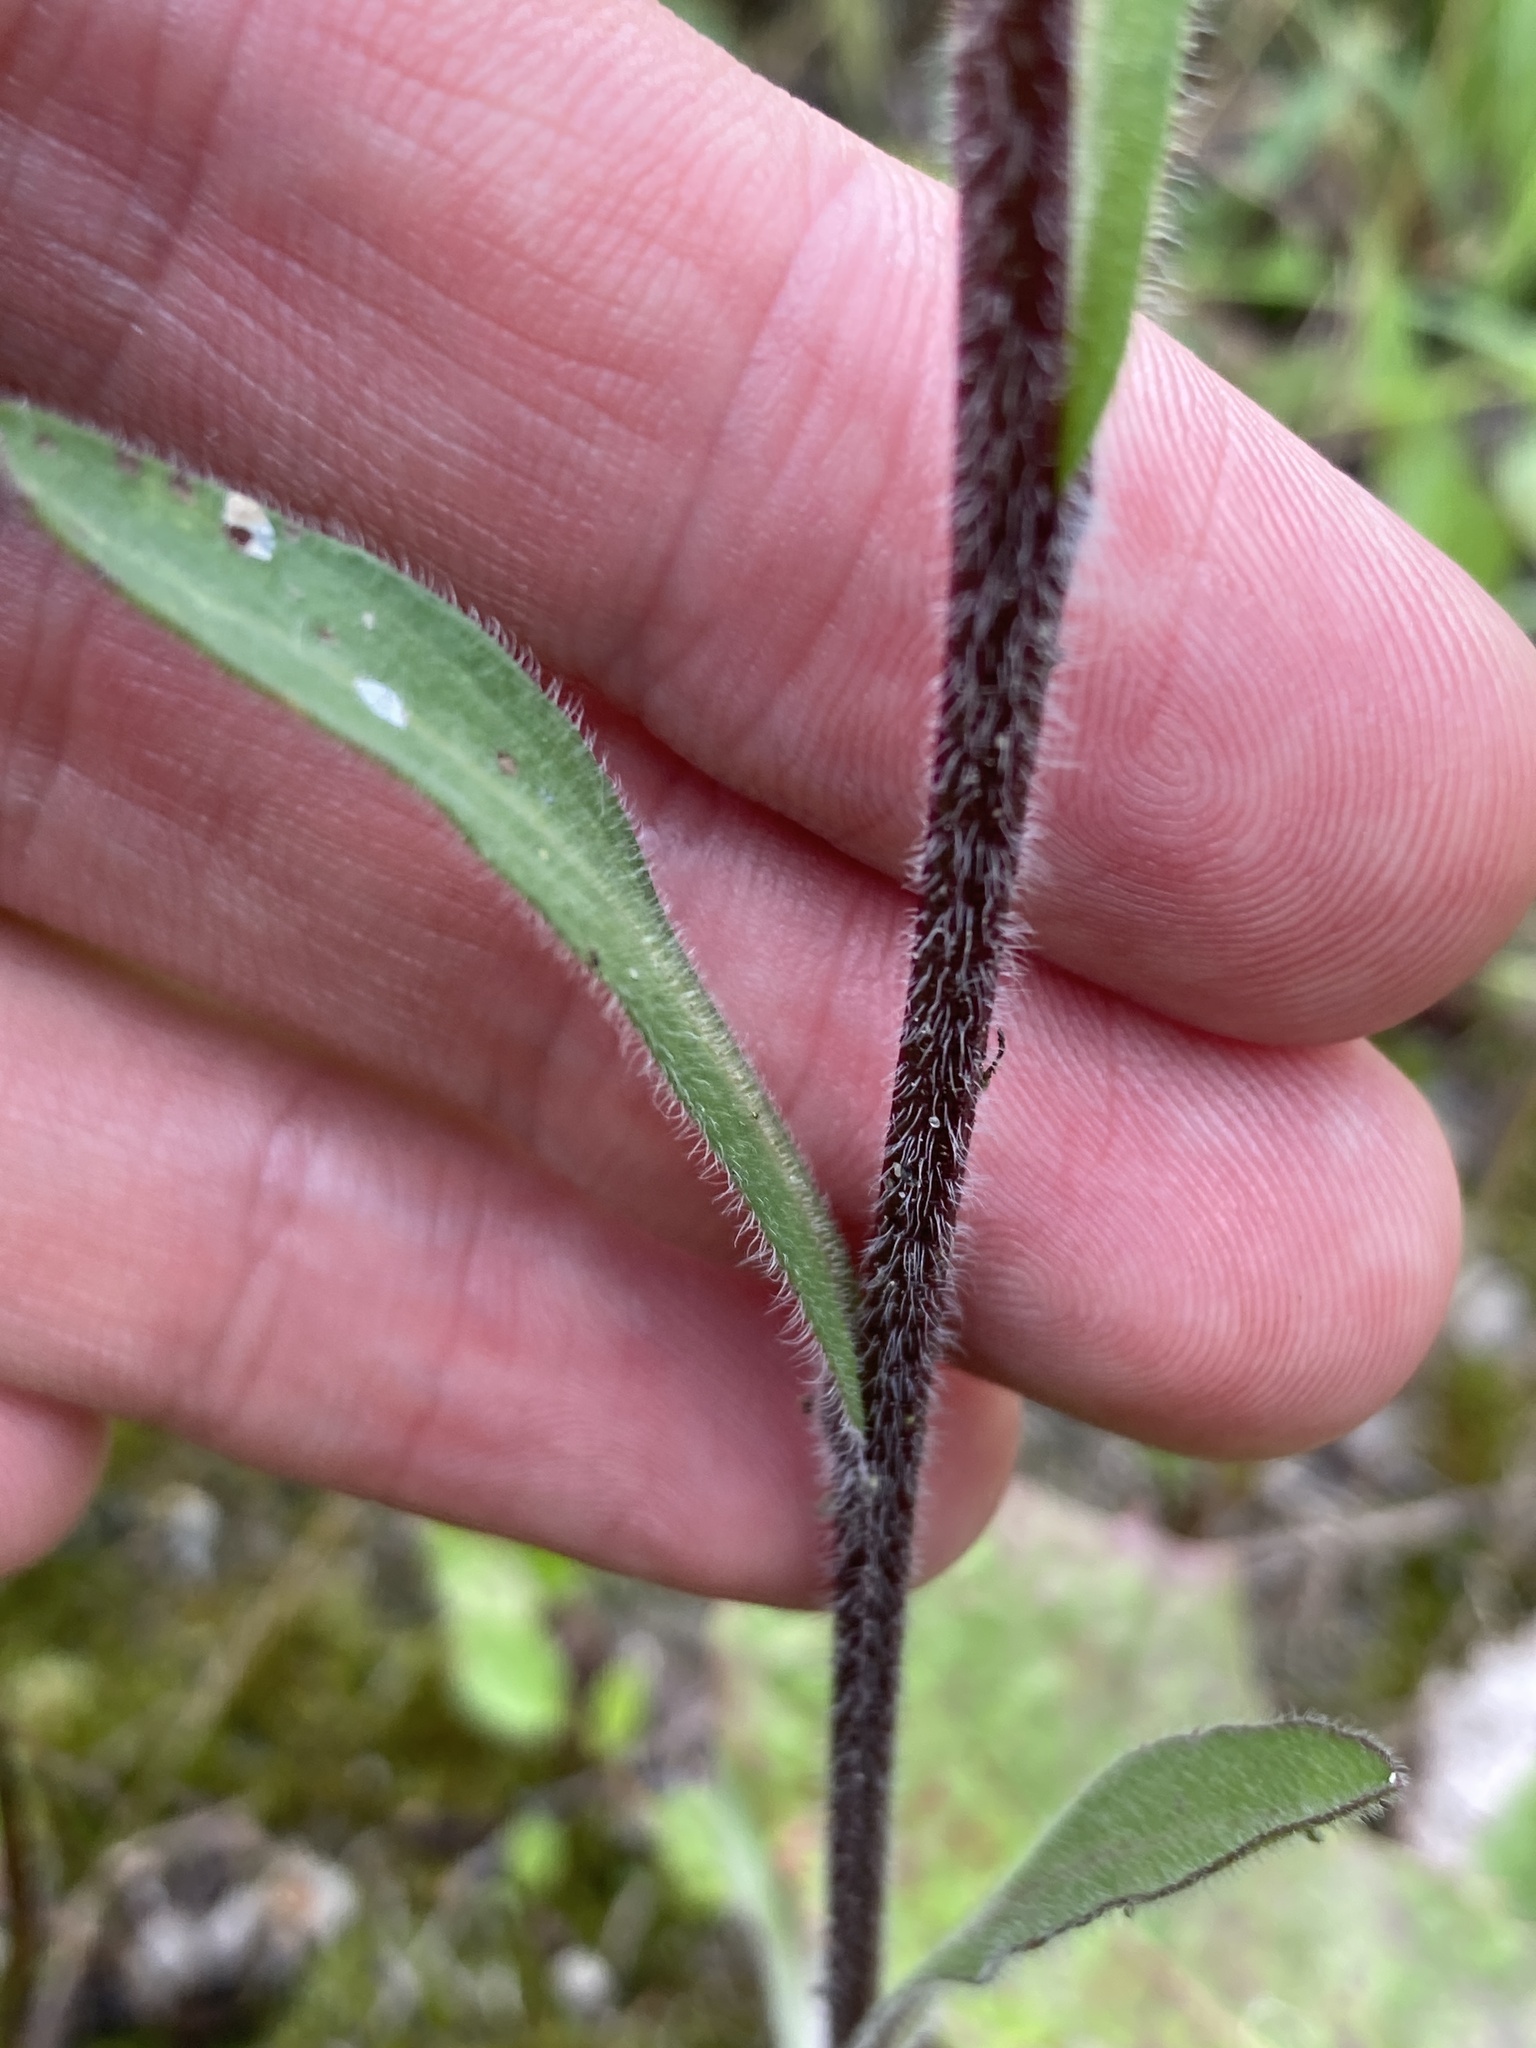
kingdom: Plantae
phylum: Tracheophyta
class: Magnoliopsida
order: Asterales
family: Asteraceae
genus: Erigeron
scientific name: Erigeron acris
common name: Blue fleabane
